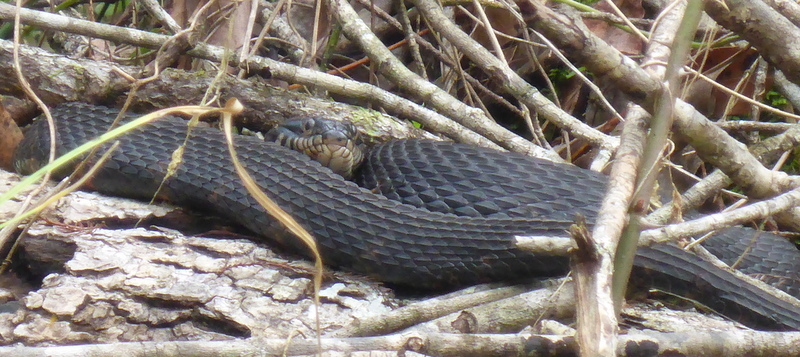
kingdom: Animalia
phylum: Chordata
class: Squamata
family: Colubridae
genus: Nerodia
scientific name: Nerodia fasciata
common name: Southern water snake
